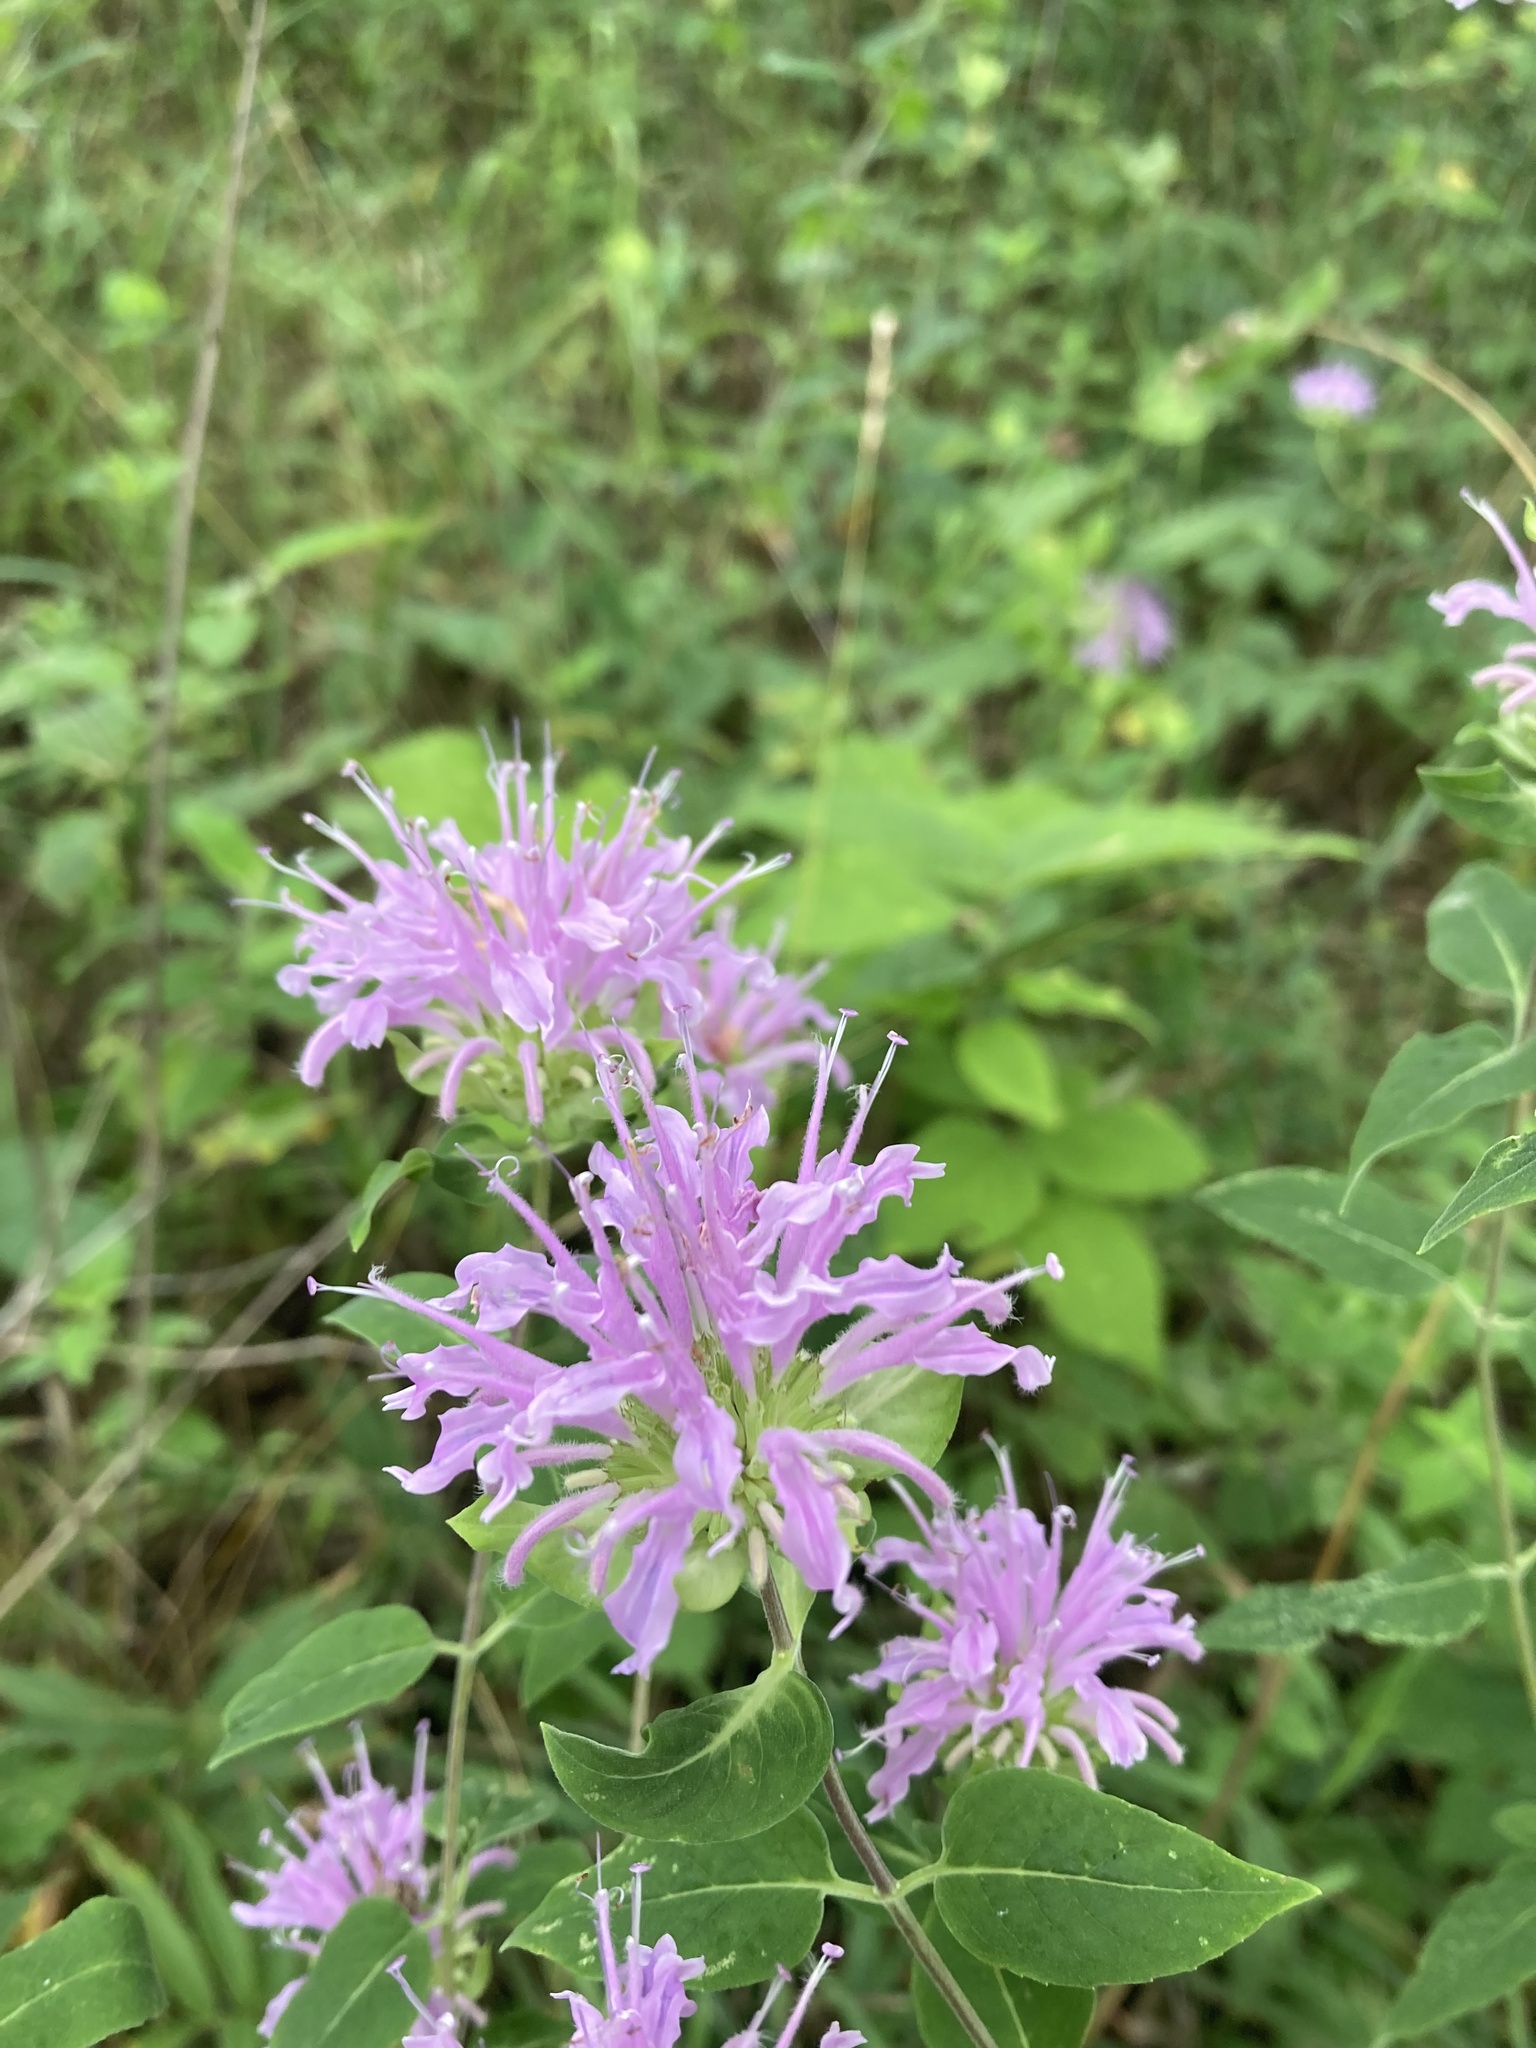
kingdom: Plantae
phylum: Tracheophyta
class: Magnoliopsida
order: Lamiales
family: Lamiaceae
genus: Monarda
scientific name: Monarda fistulosa
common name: Purple beebalm
